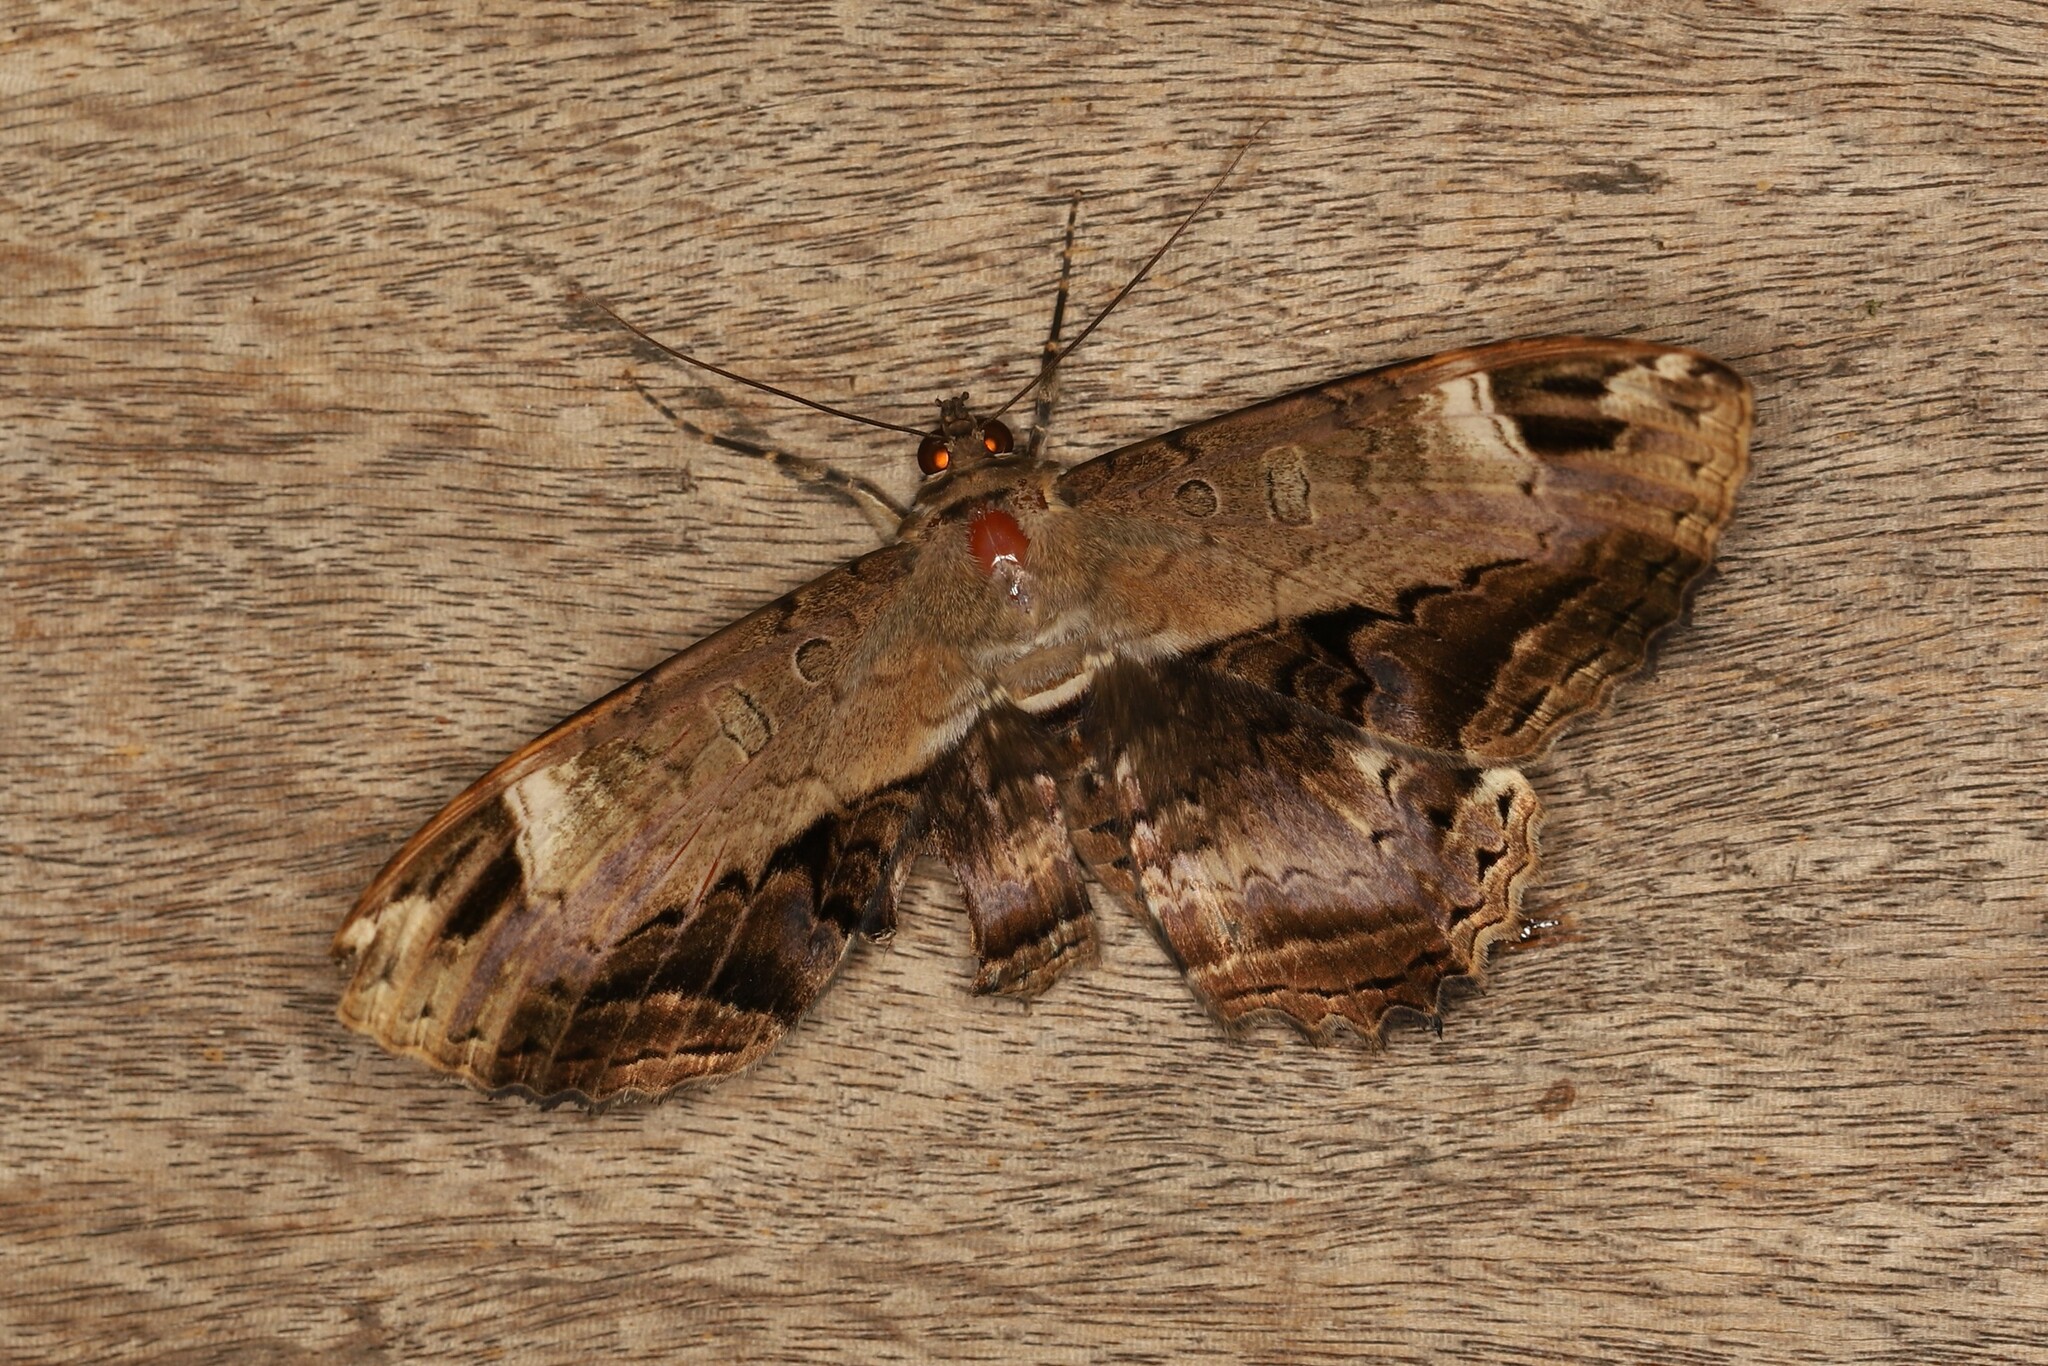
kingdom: Animalia
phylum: Arthropoda
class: Insecta
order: Lepidoptera
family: Noctuidae
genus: Ronania
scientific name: Ronania
